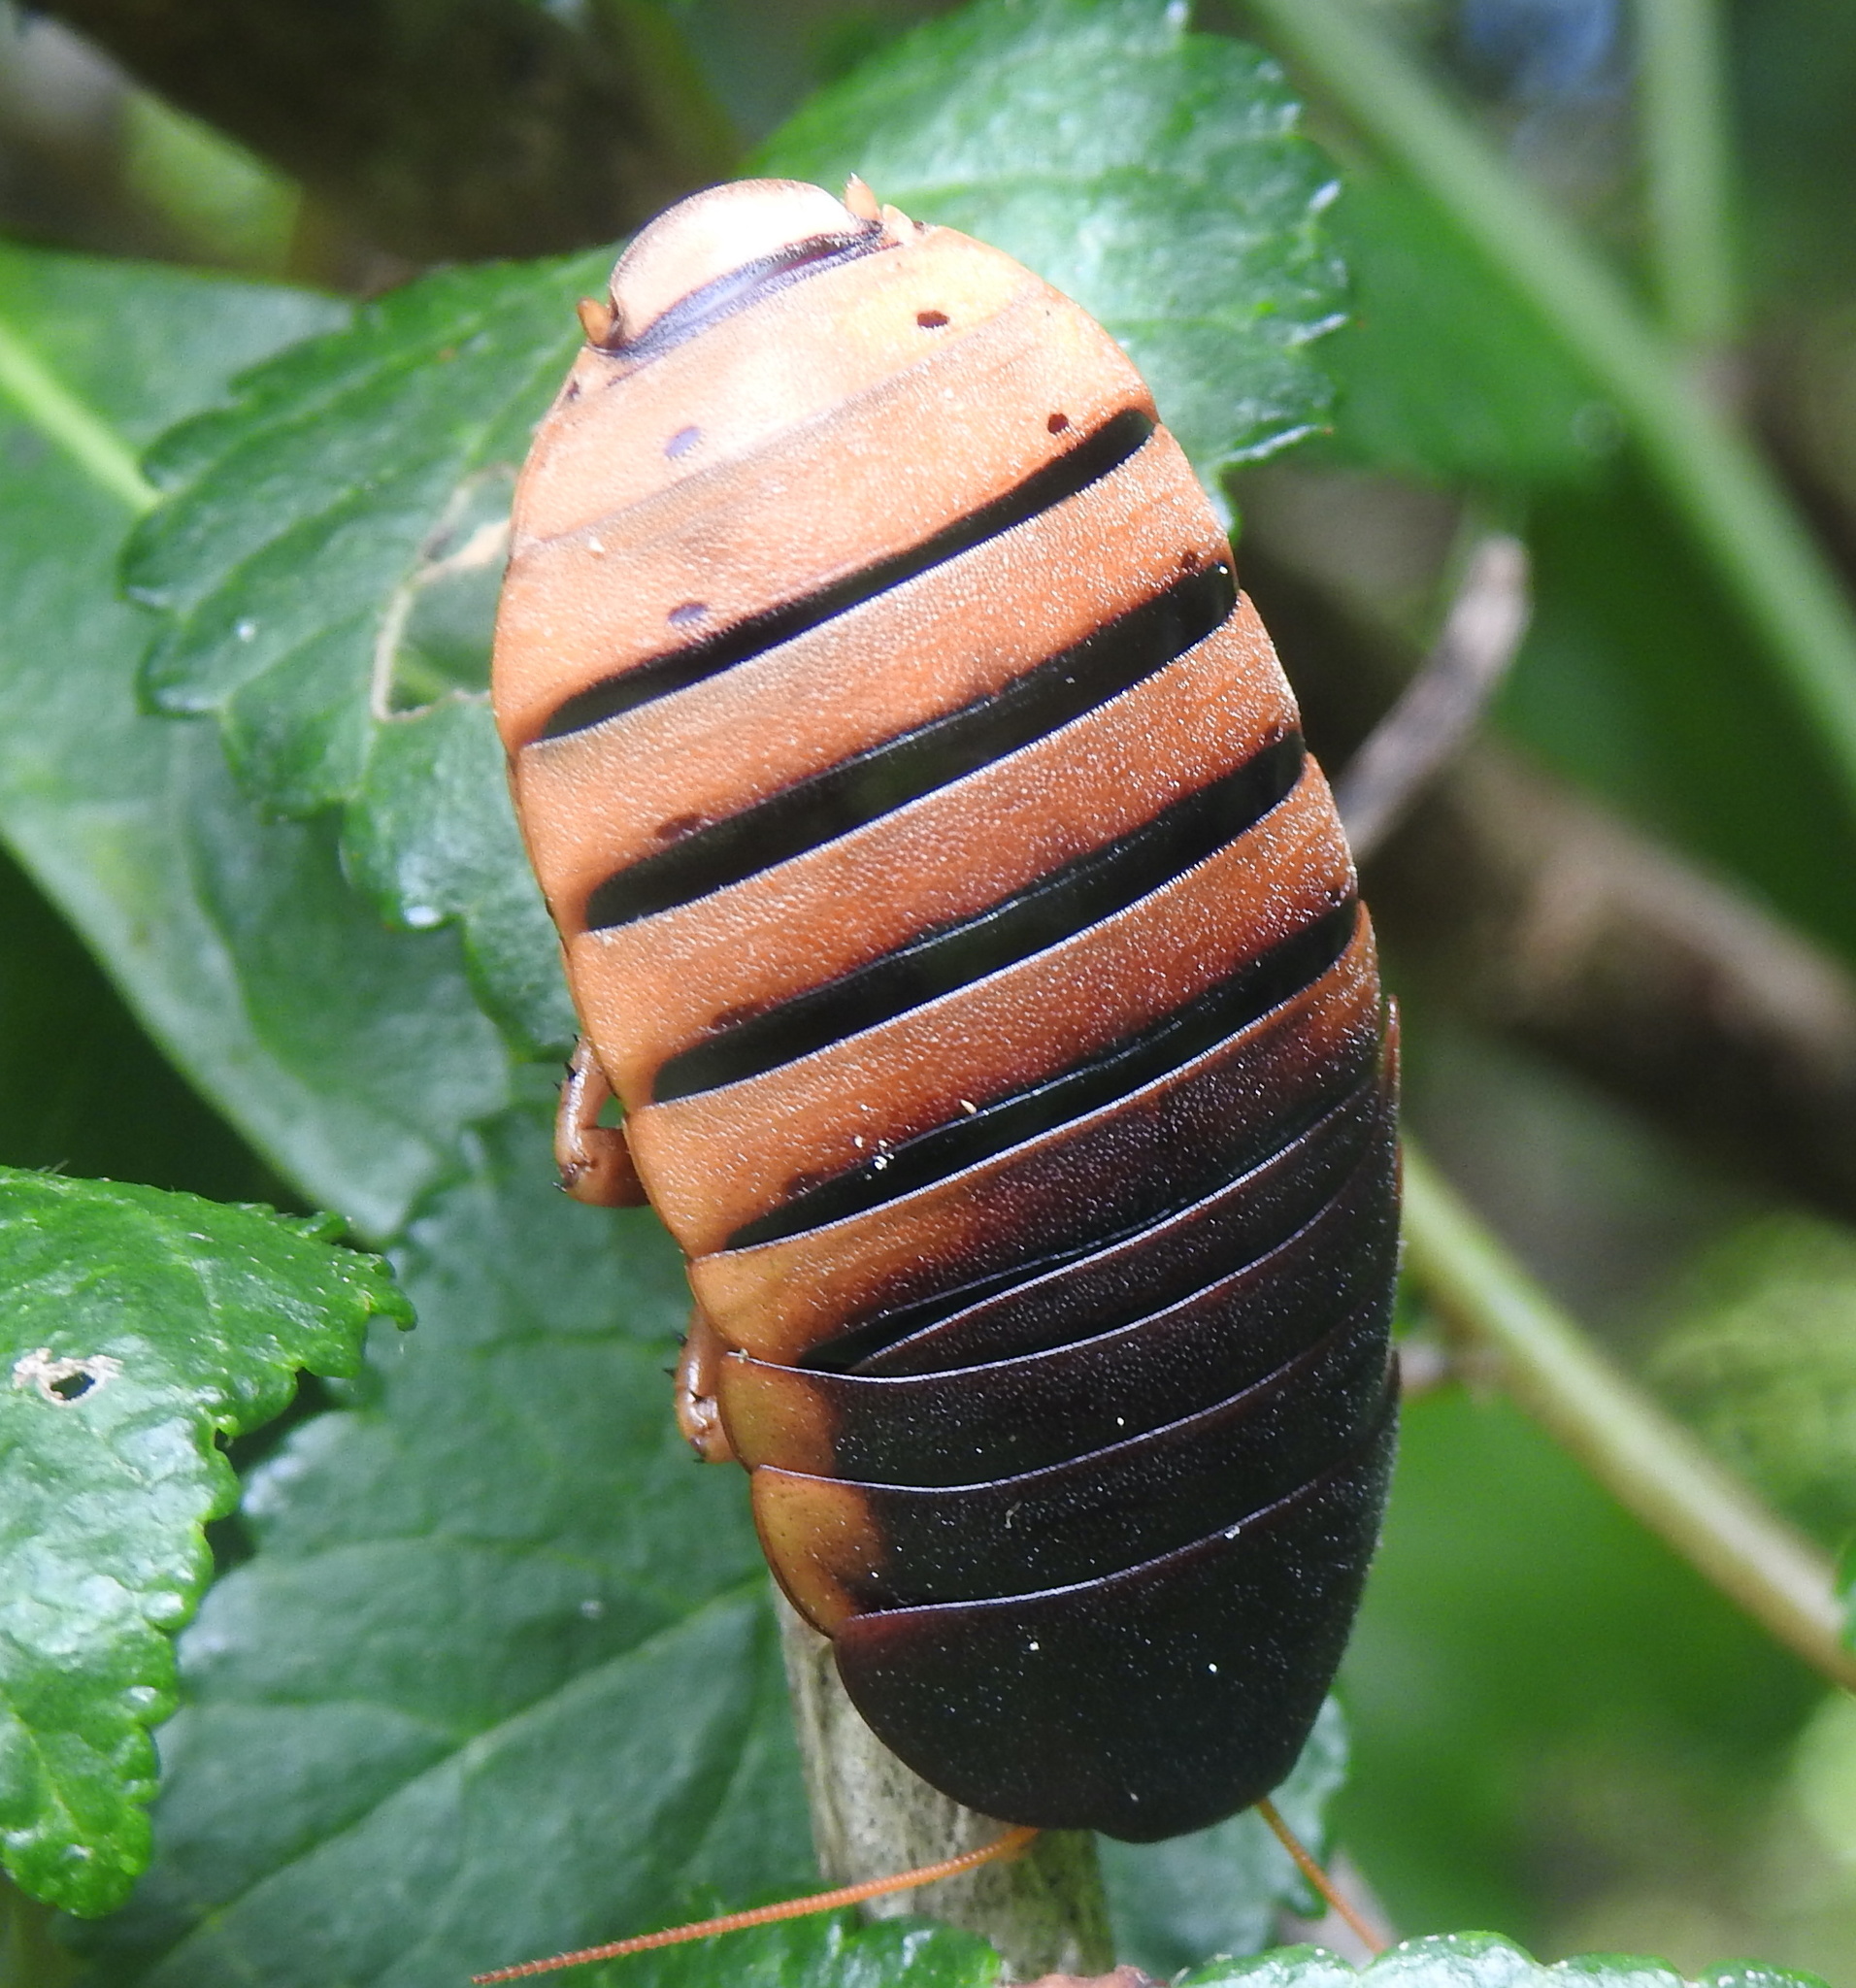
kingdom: Animalia
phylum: Arthropoda
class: Insecta
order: Blattodea
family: Blaberidae
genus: Aptera
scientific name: Aptera fusca
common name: Cape mountain cockroach
